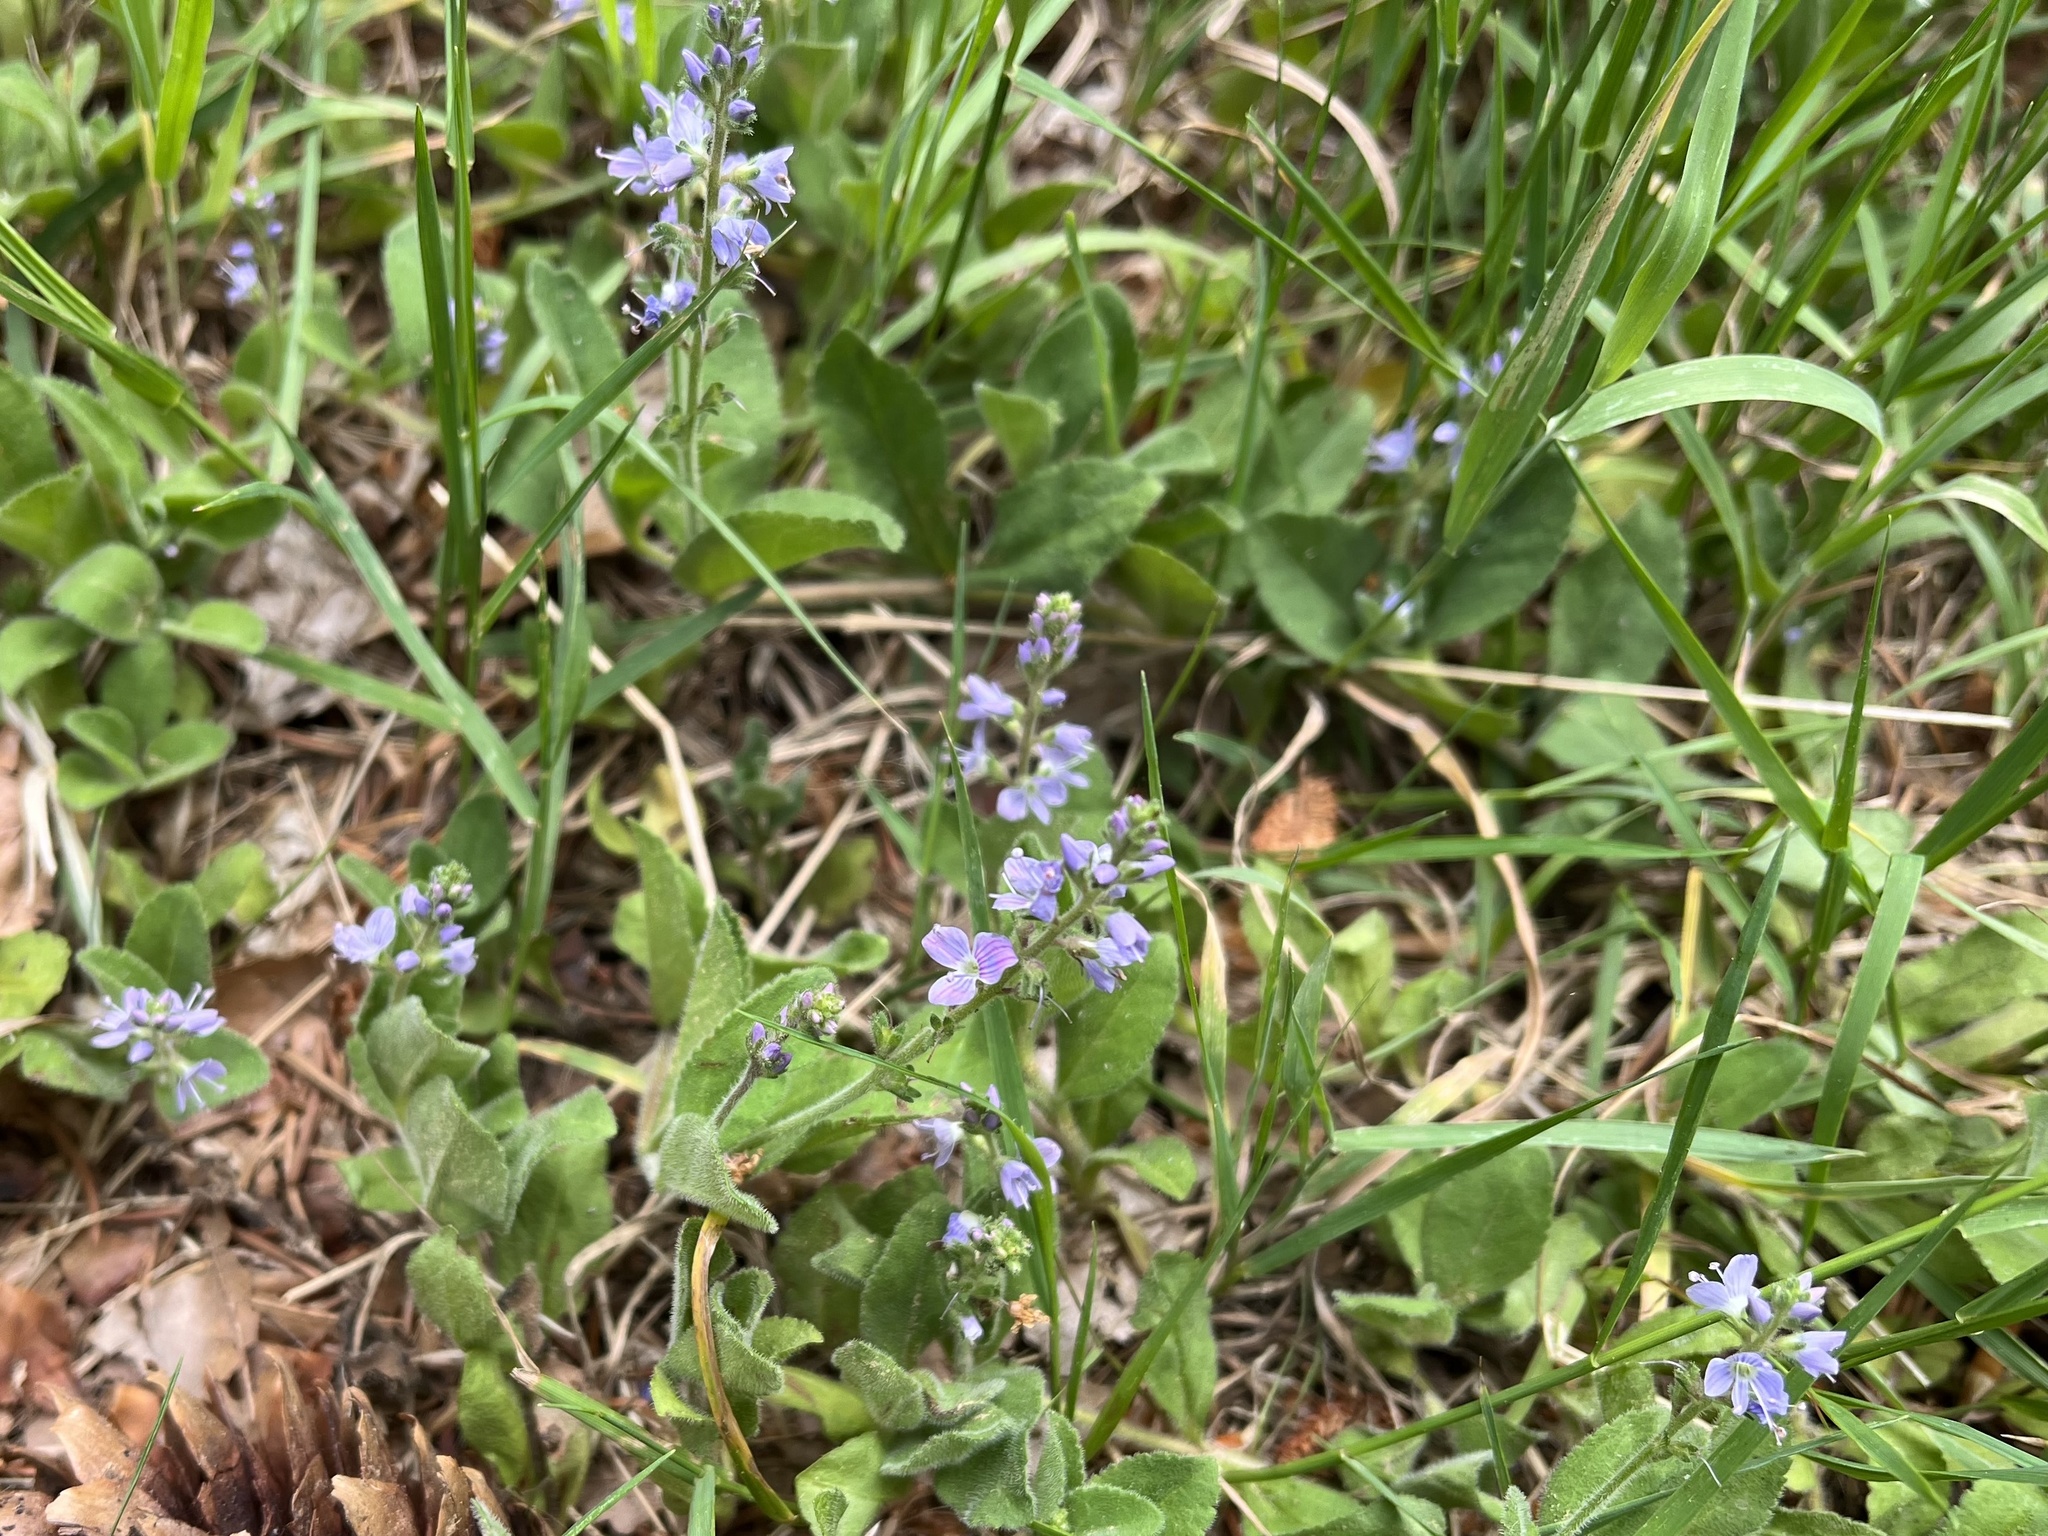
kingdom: Plantae
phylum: Tracheophyta
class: Magnoliopsida
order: Lamiales
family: Plantaginaceae
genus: Veronica
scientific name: Veronica officinalis
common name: Common speedwell
